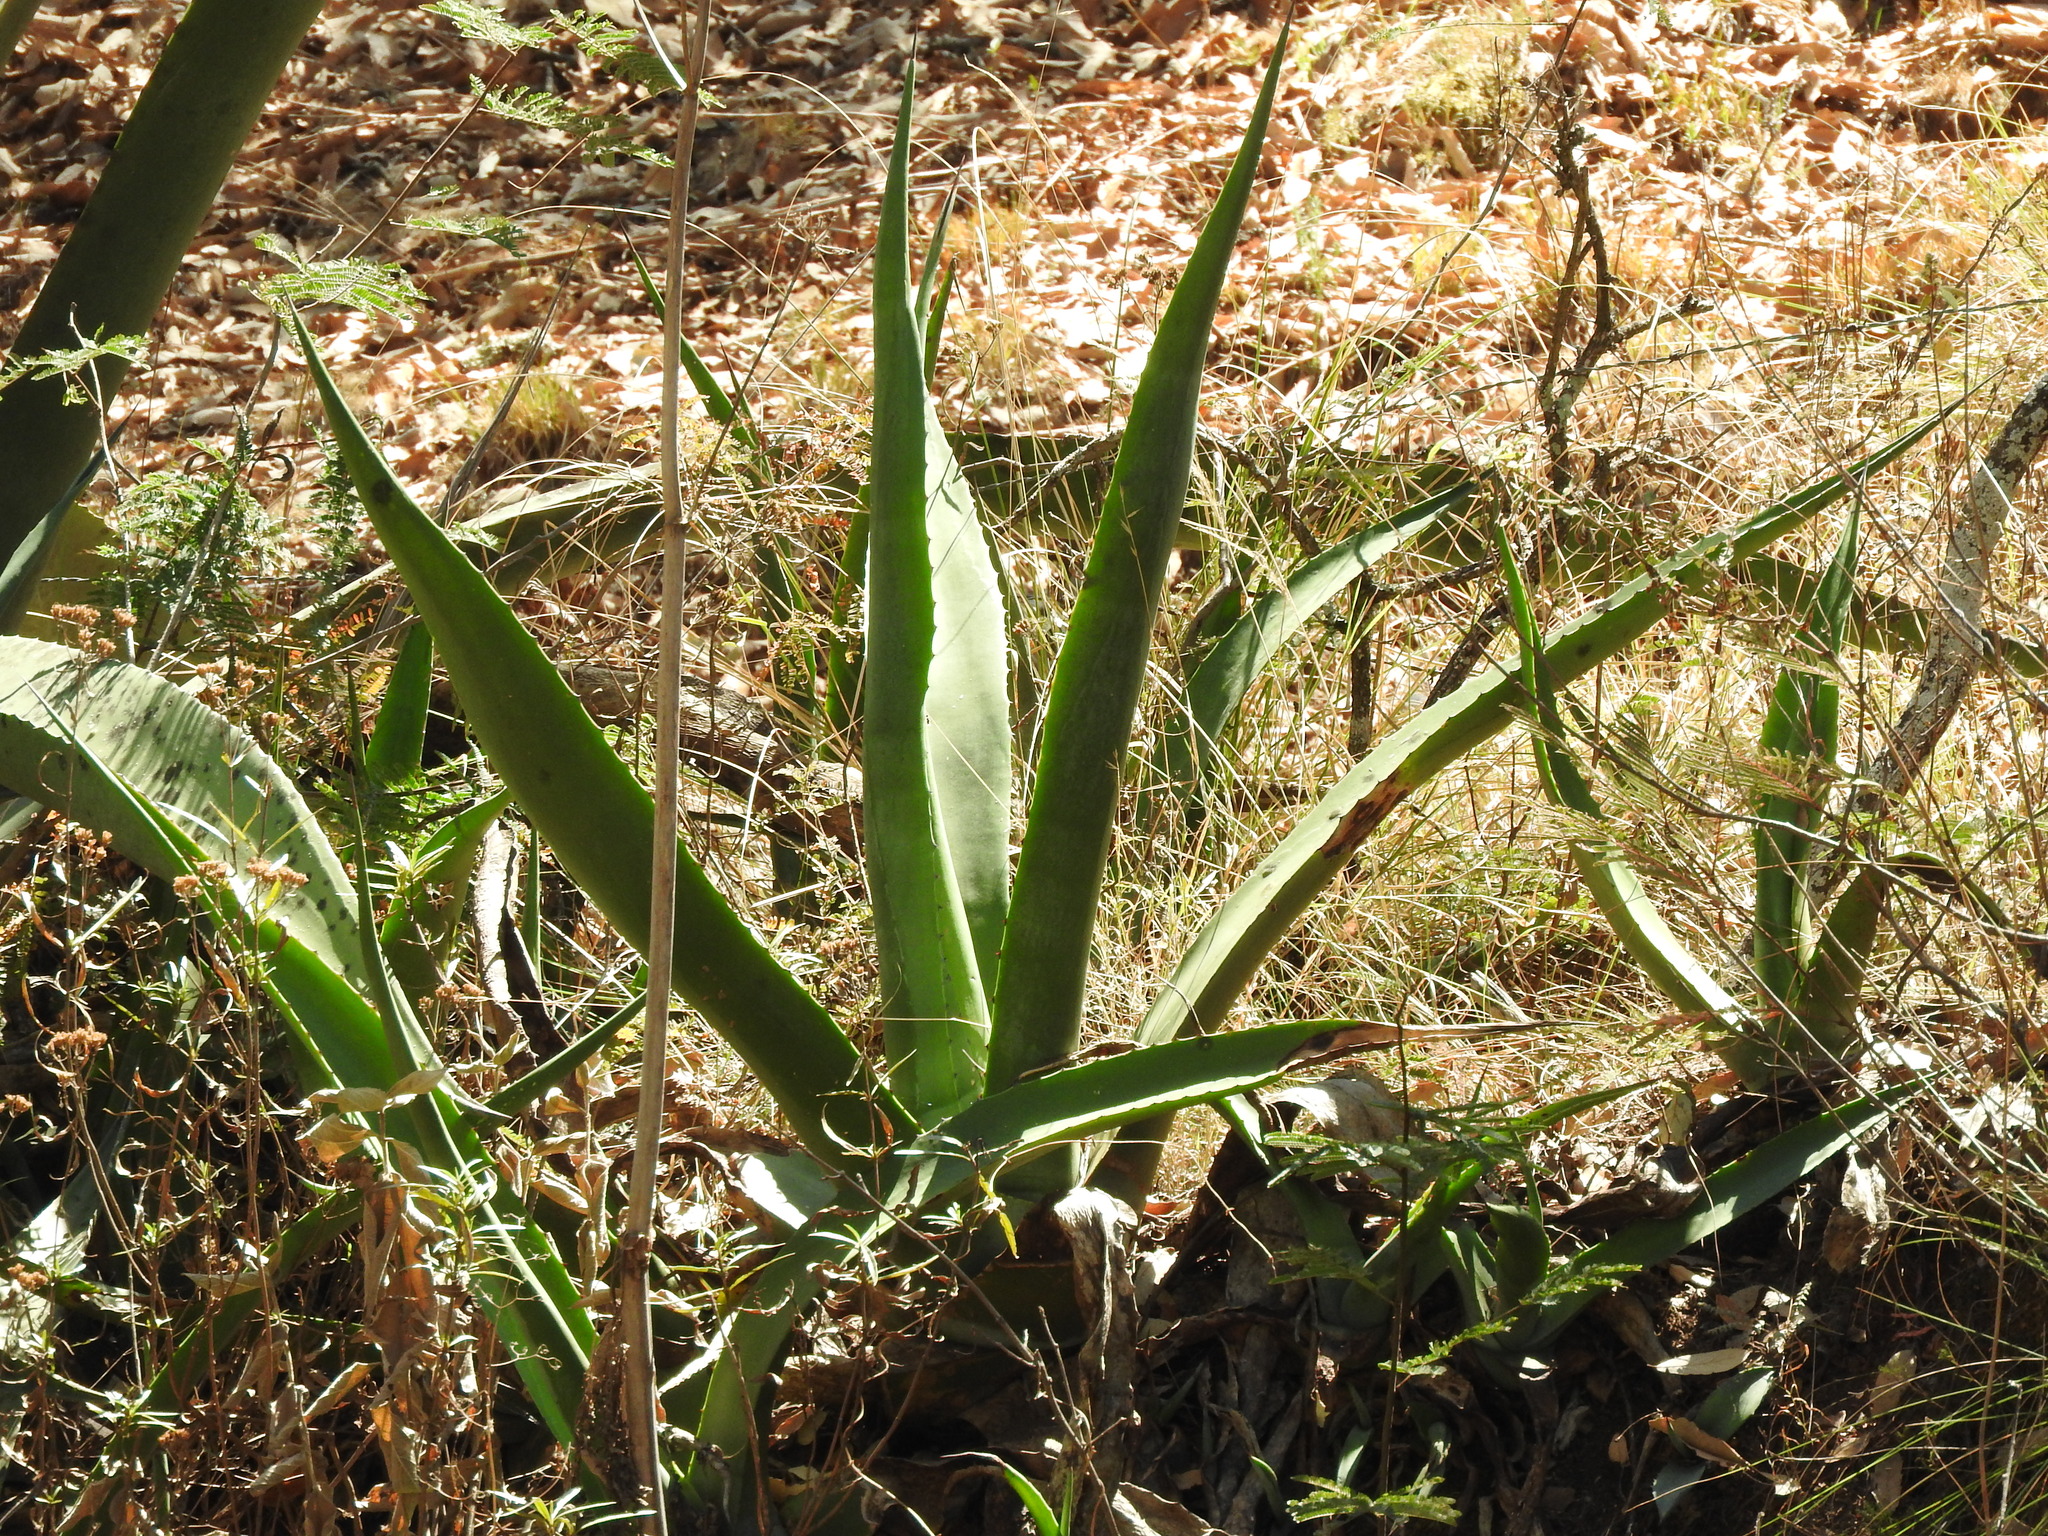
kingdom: Plantae
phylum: Tracheophyta
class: Liliopsida
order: Asparagales
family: Asparagaceae
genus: Agave
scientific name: Agave salmiana
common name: Pulque agave
